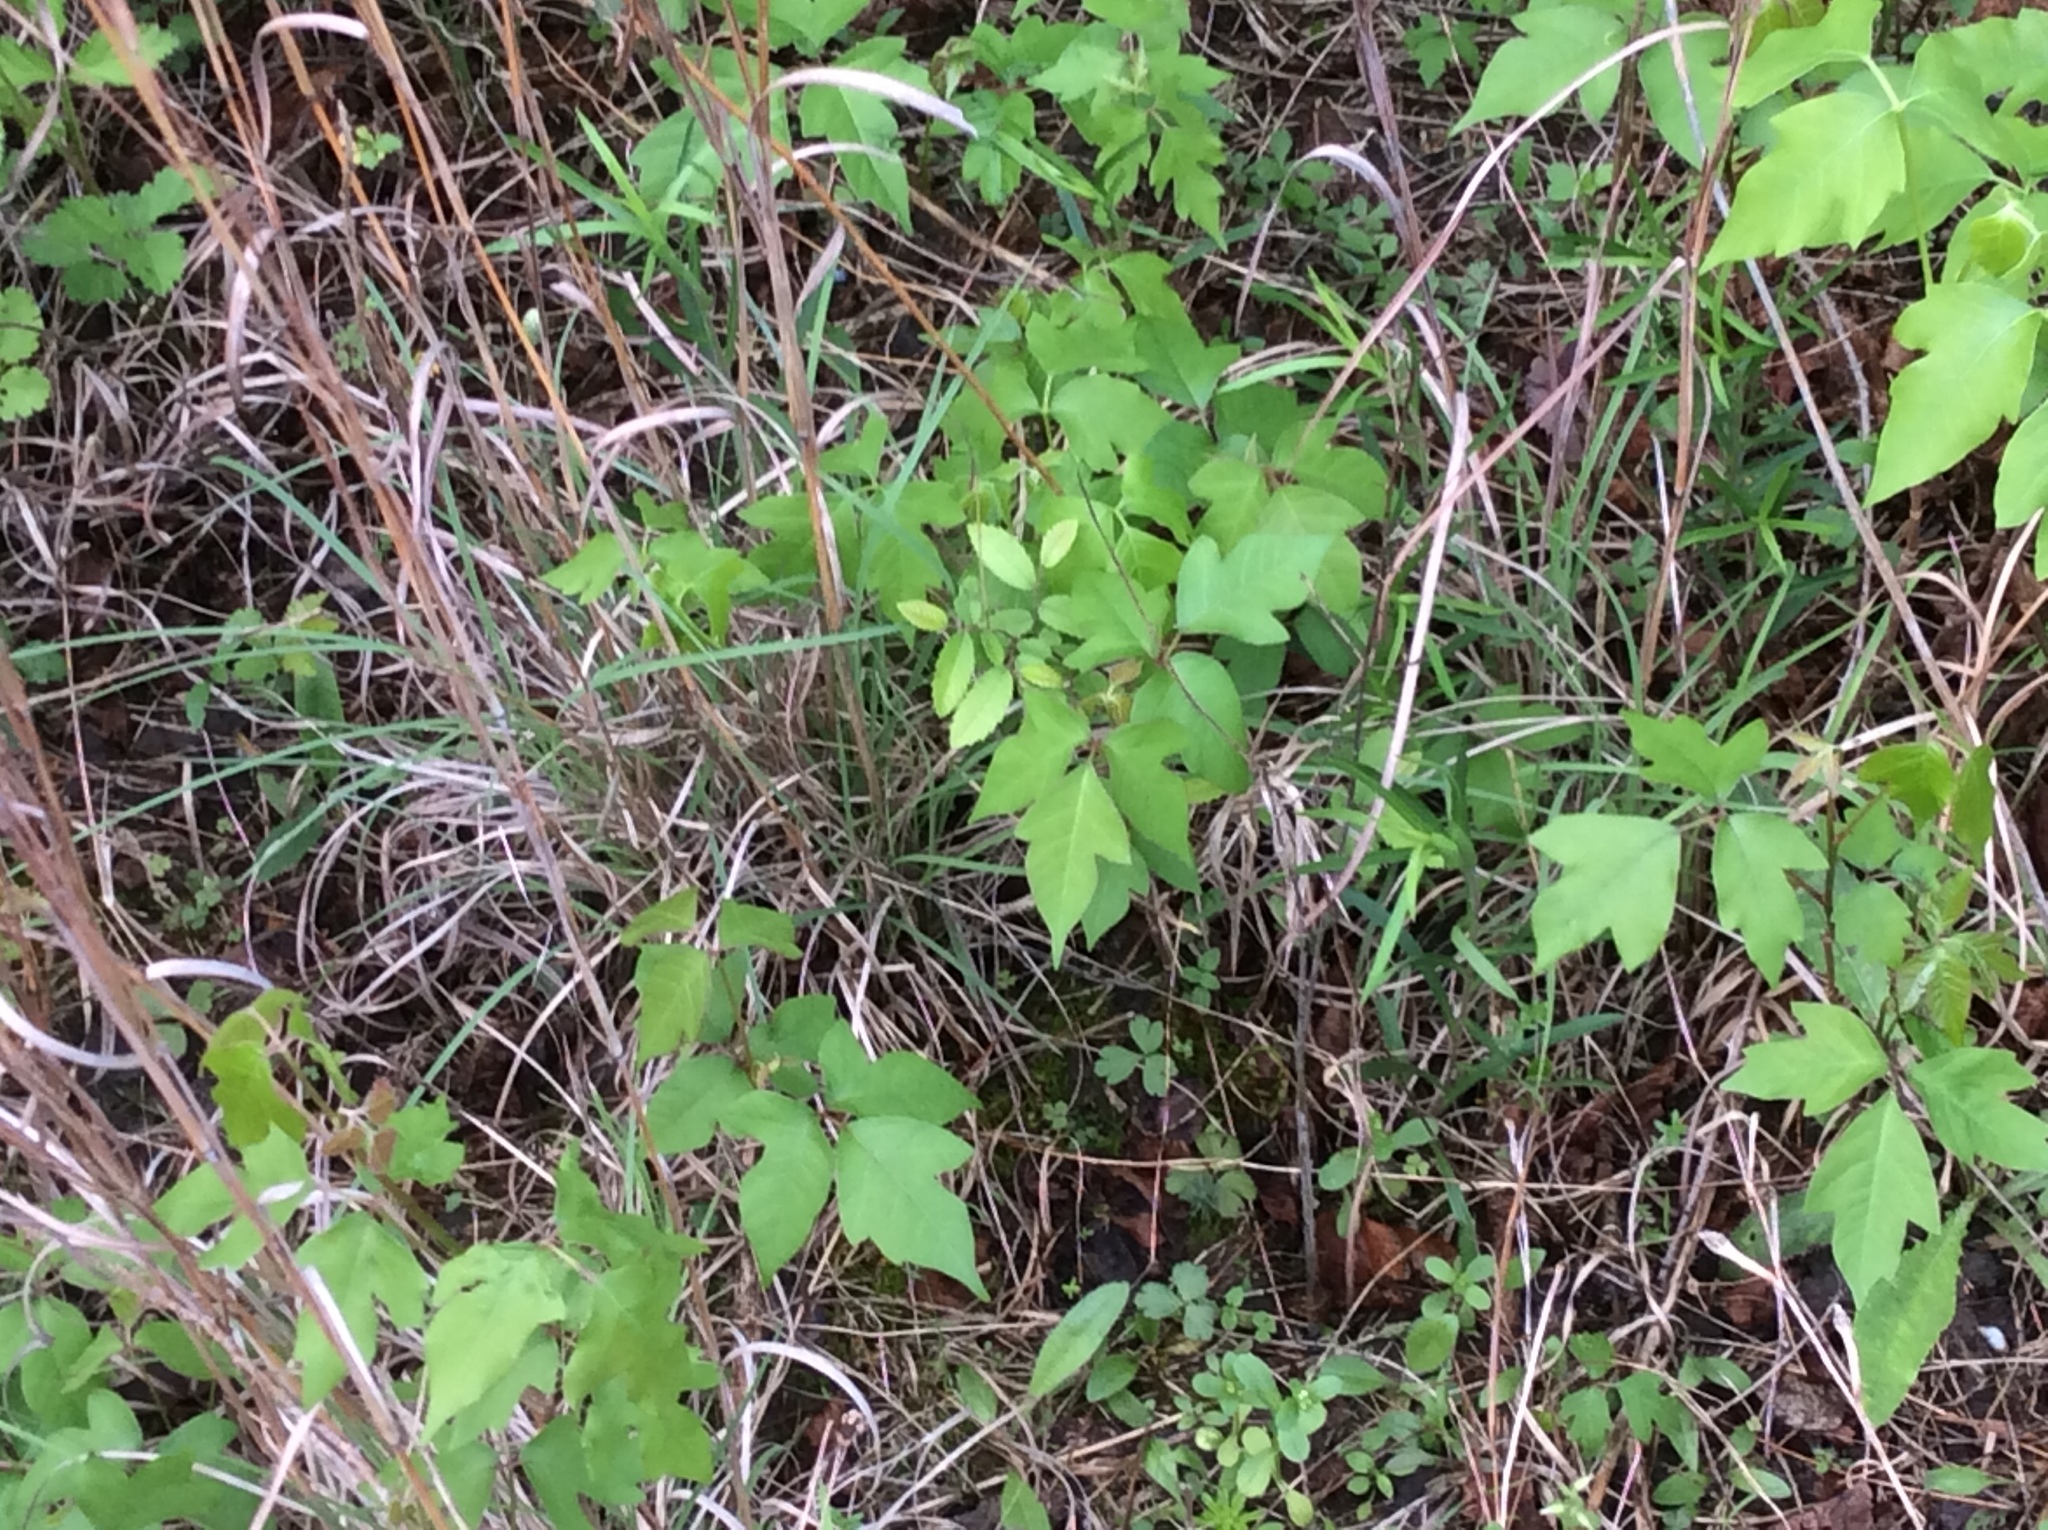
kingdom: Plantae
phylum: Tracheophyta
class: Magnoliopsida
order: Sapindales
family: Anacardiaceae
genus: Toxicodendron
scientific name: Toxicodendron radicans
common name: Poison ivy
